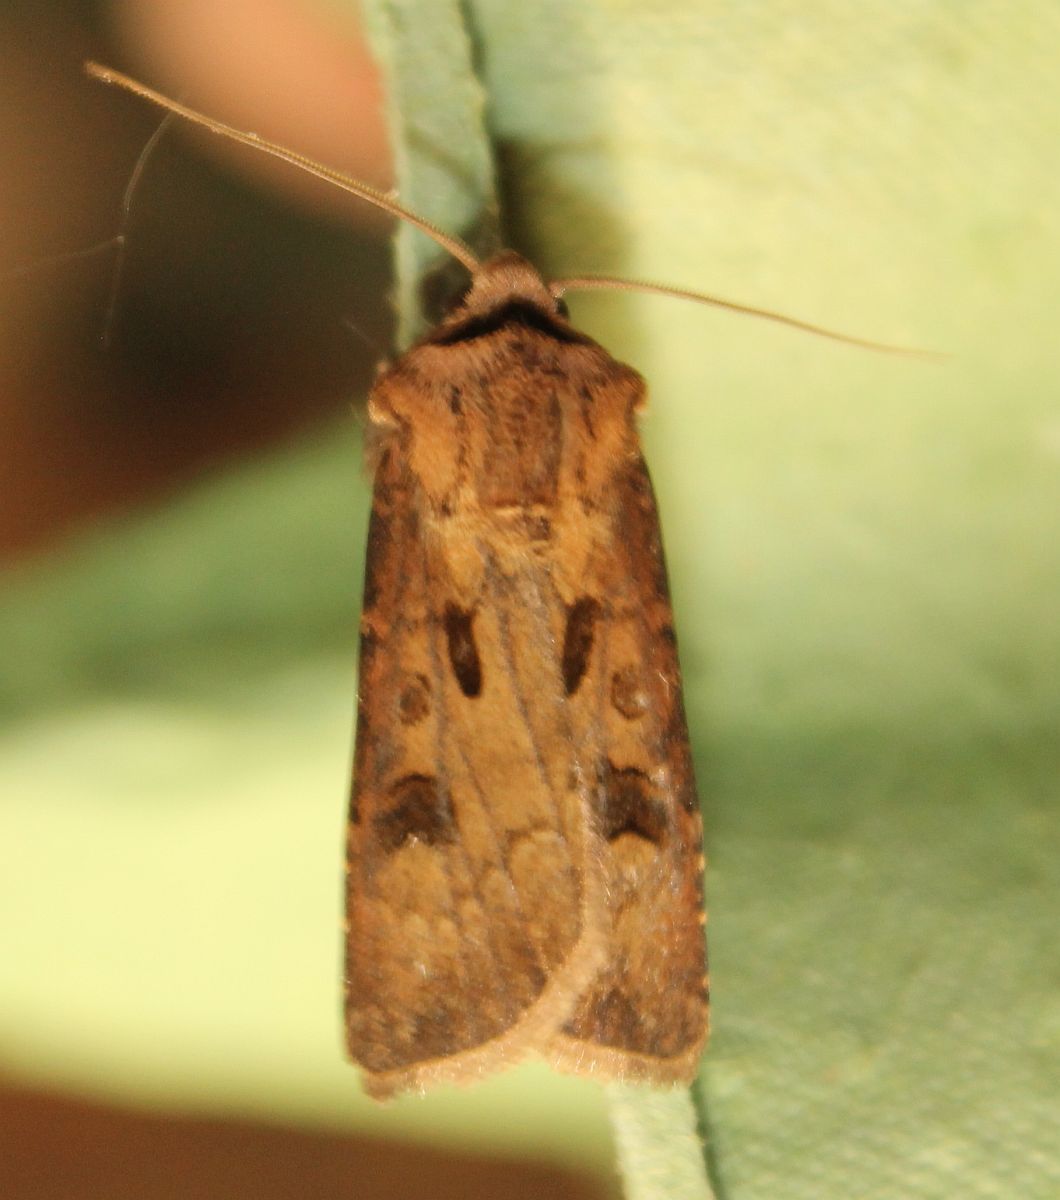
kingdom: Animalia
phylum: Arthropoda
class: Insecta
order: Lepidoptera
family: Noctuidae
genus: Agrotis
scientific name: Agrotis exclamationis
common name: Heart and dart
